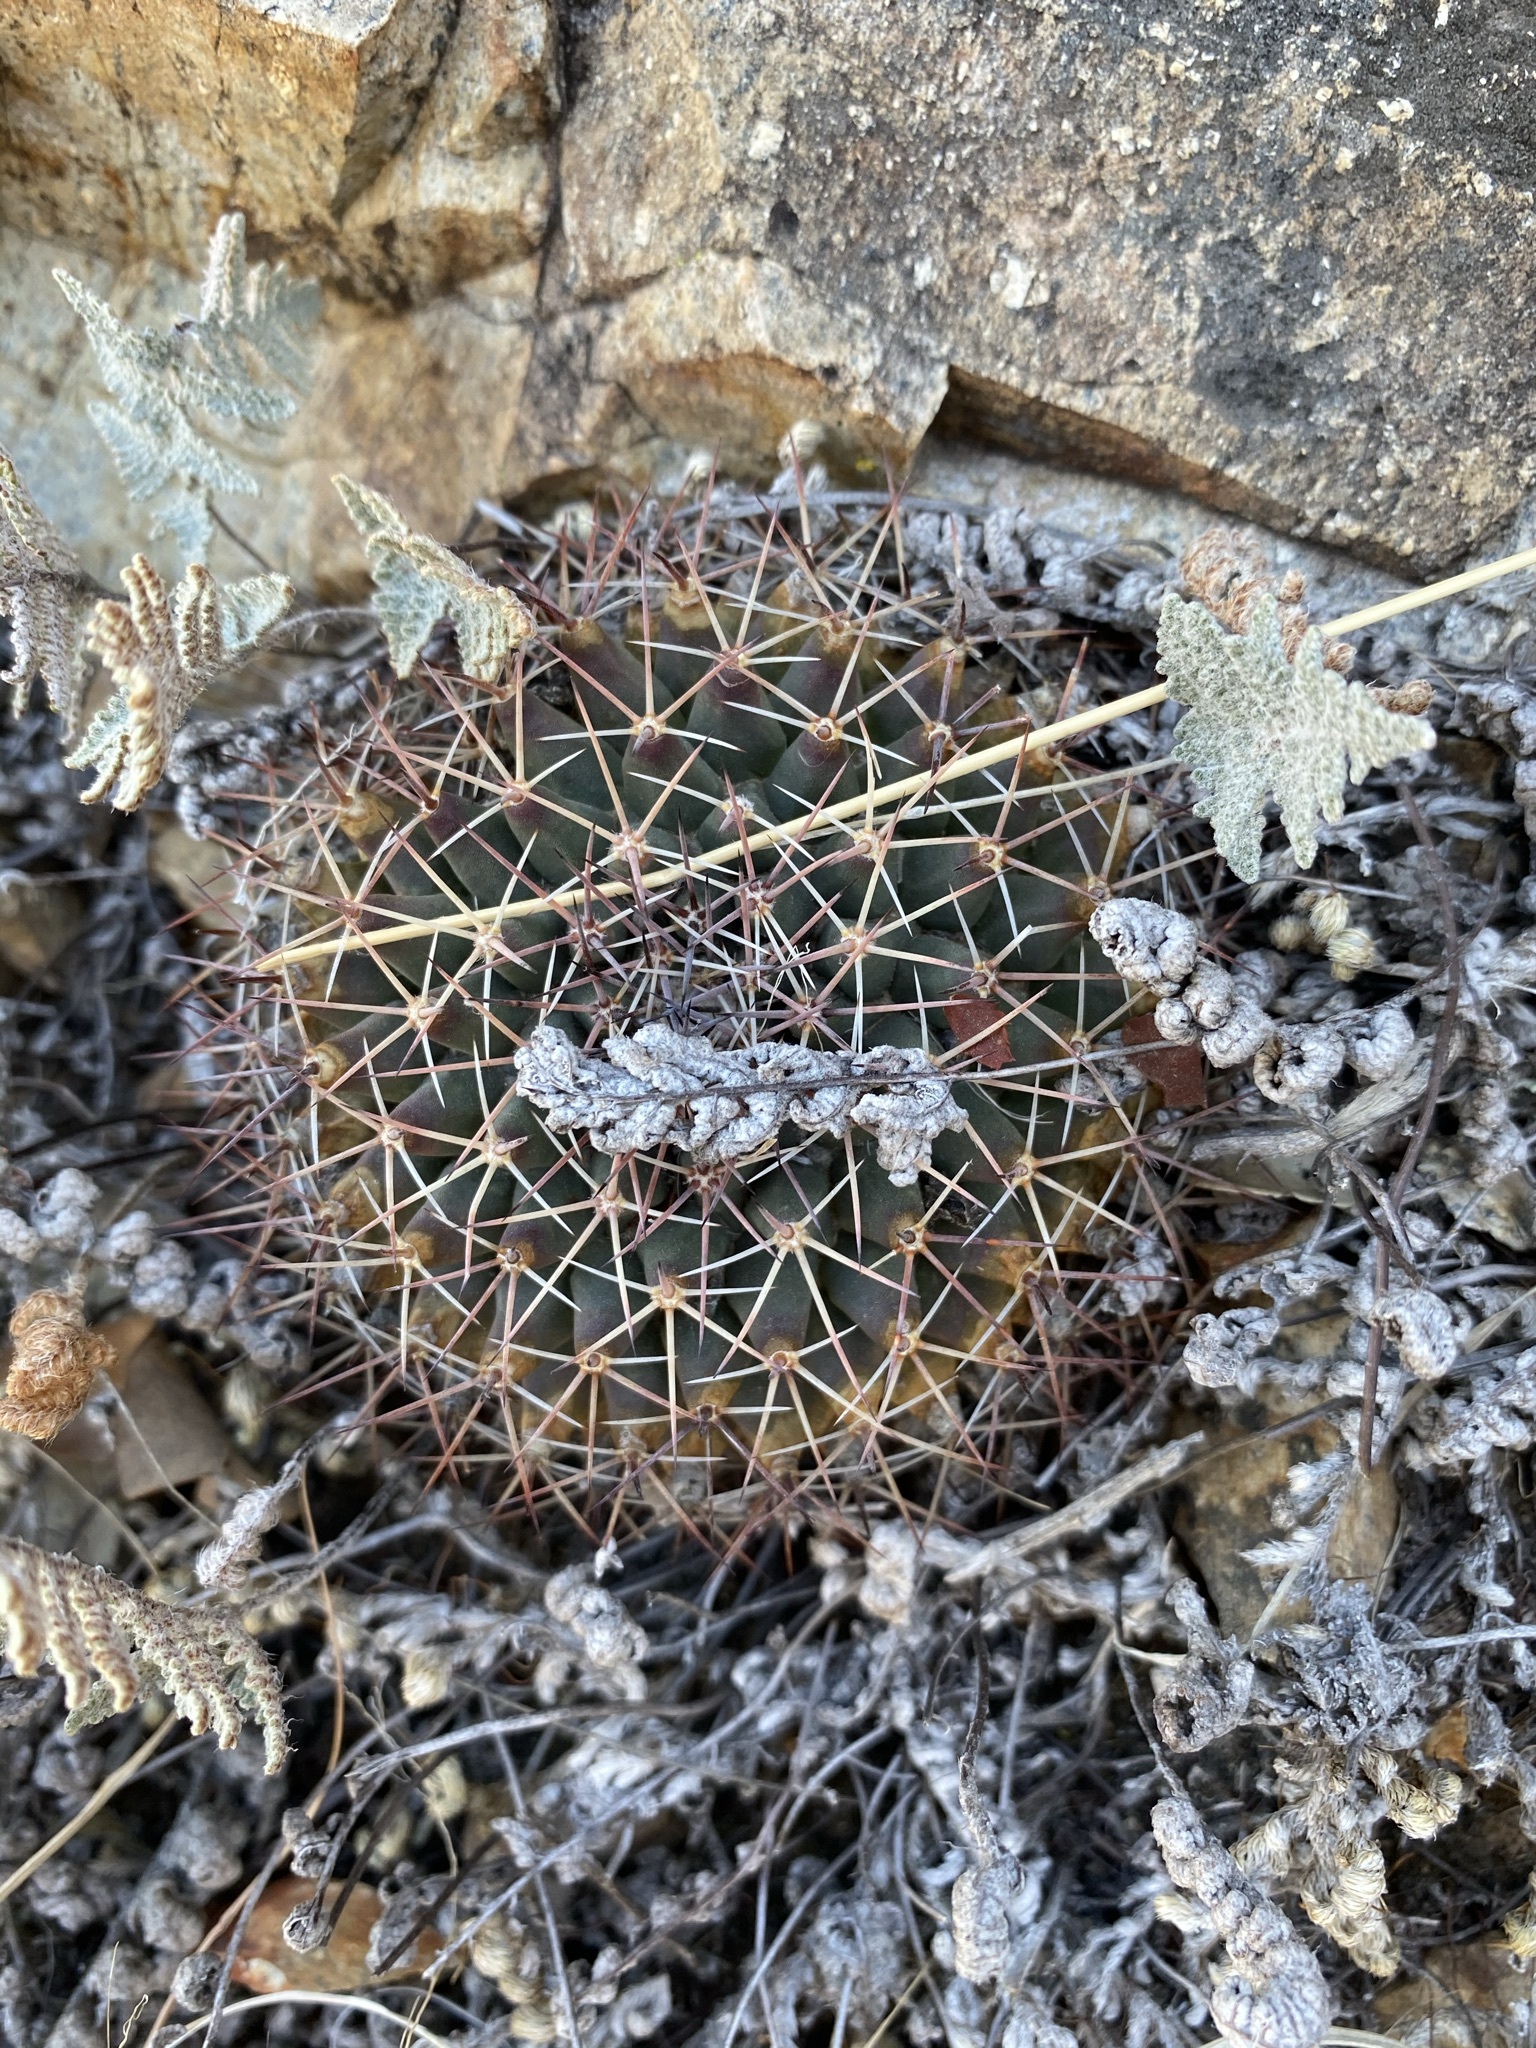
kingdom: Plantae
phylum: Tracheophyta
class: Magnoliopsida
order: Caryophyllales
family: Cactaceae
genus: Mammillaria
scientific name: Mammillaria heyderi
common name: Little nipple cactus
